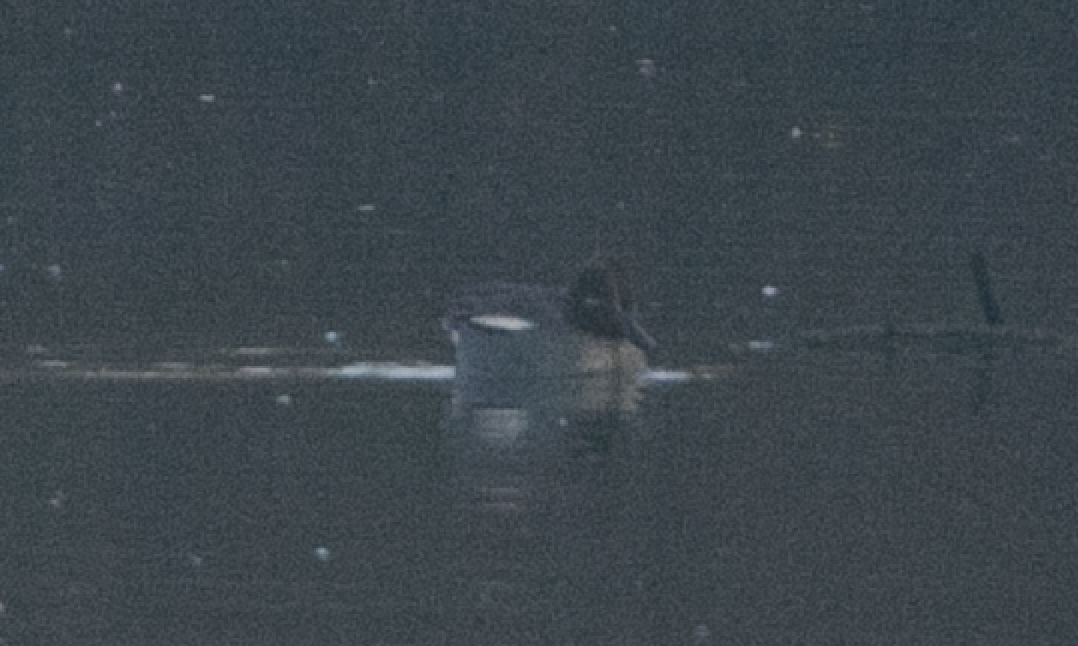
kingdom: Animalia
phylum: Chordata
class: Aves
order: Anseriformes
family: Anatidae
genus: Anas
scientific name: Anas crecca
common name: Eurasian teal
